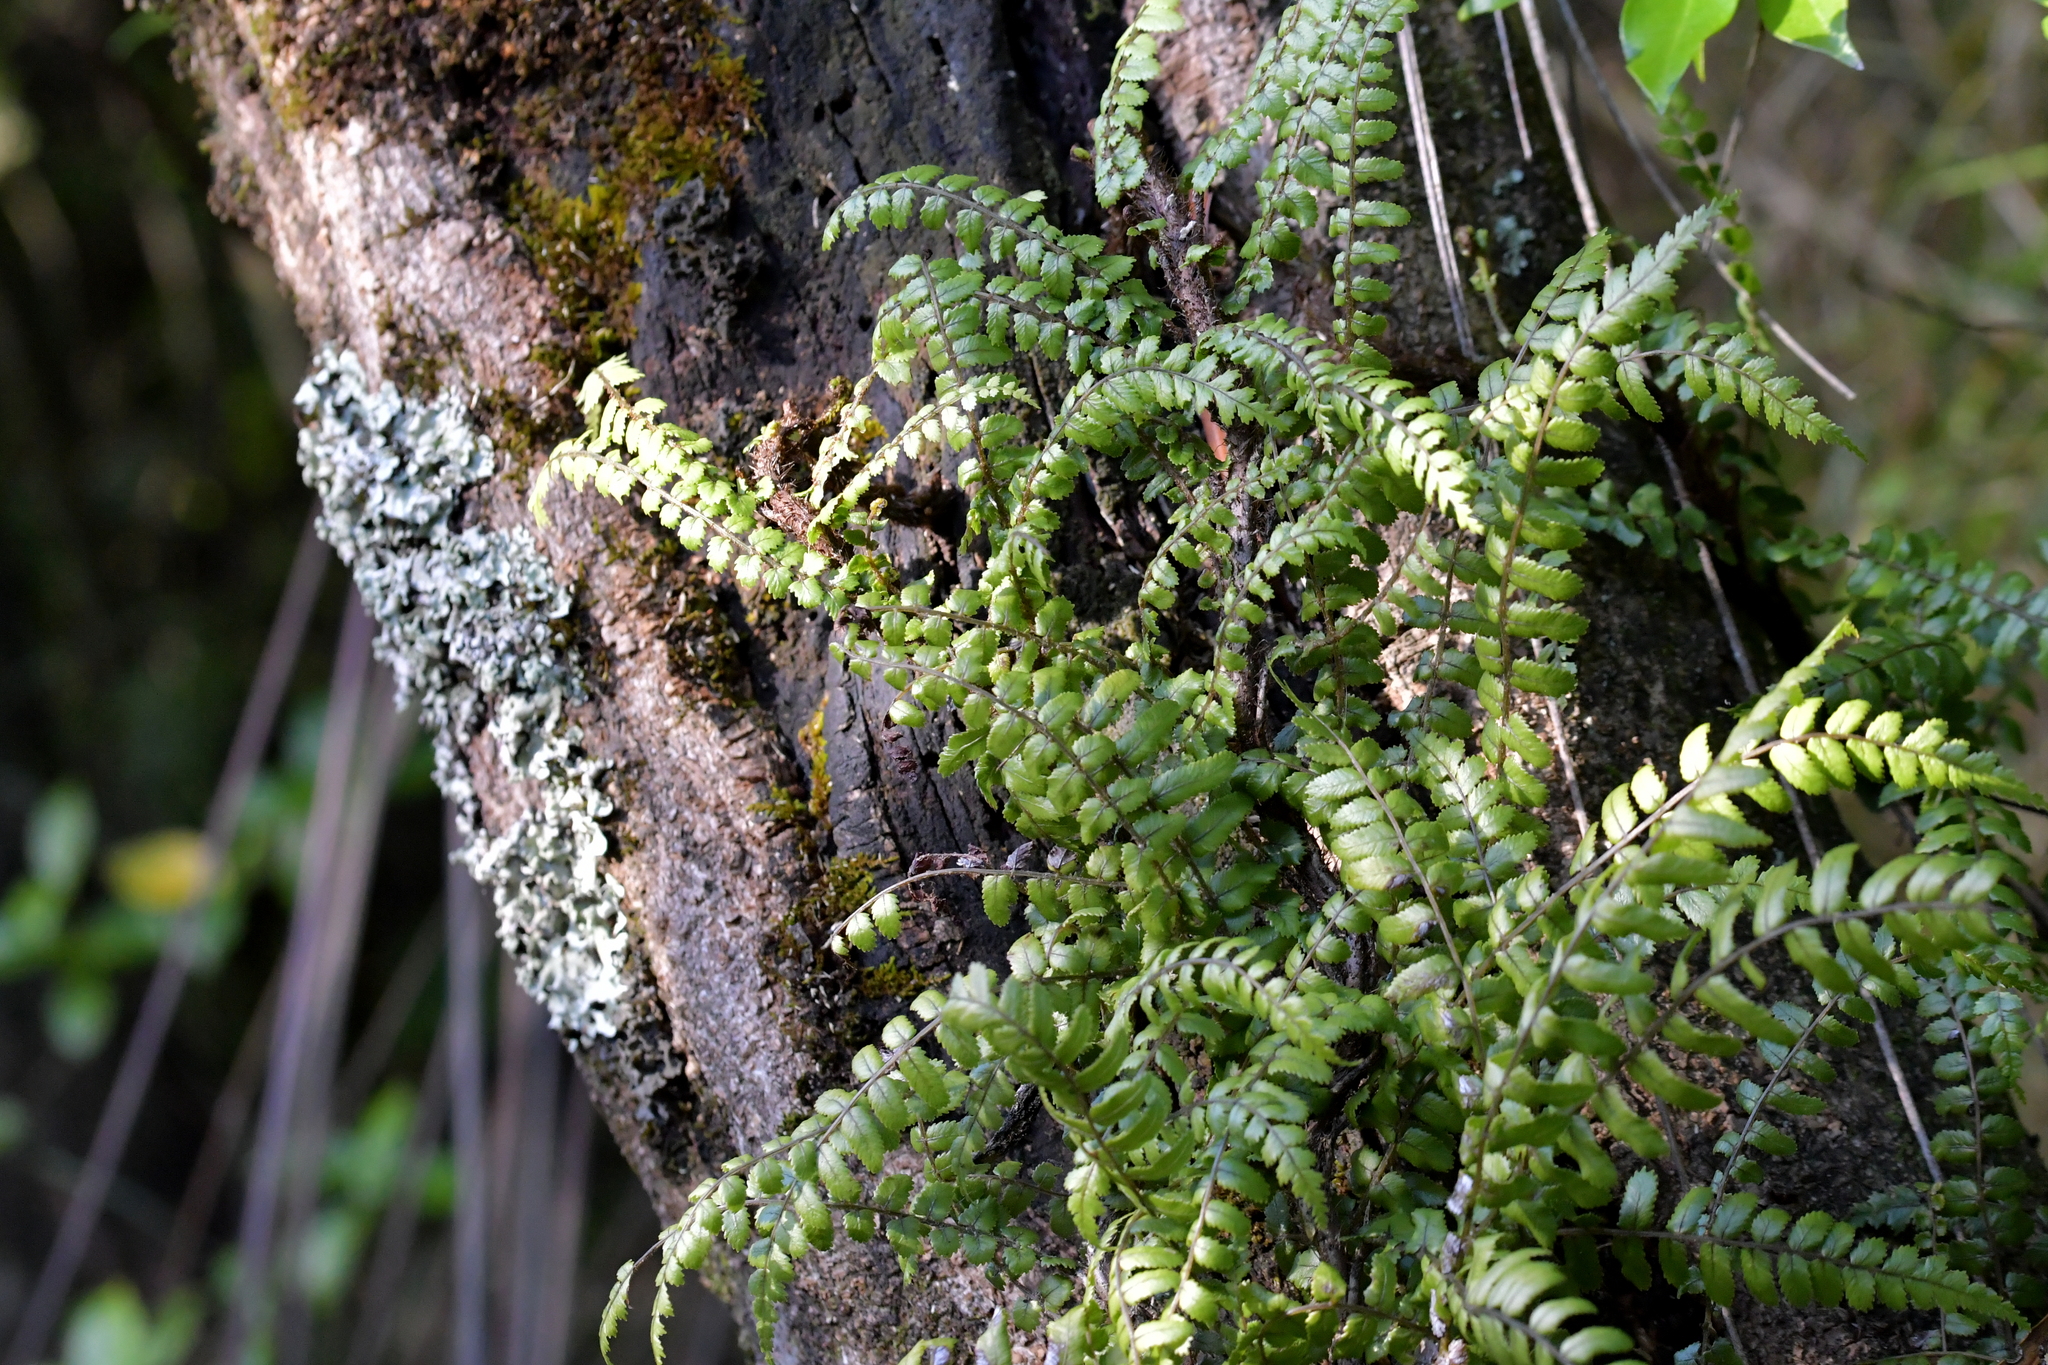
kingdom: Plantae
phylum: Tracheophyta
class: Polypodiopsida
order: Polypodiales
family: Blechnaceae
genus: Icarus
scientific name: Icarus filiformis
